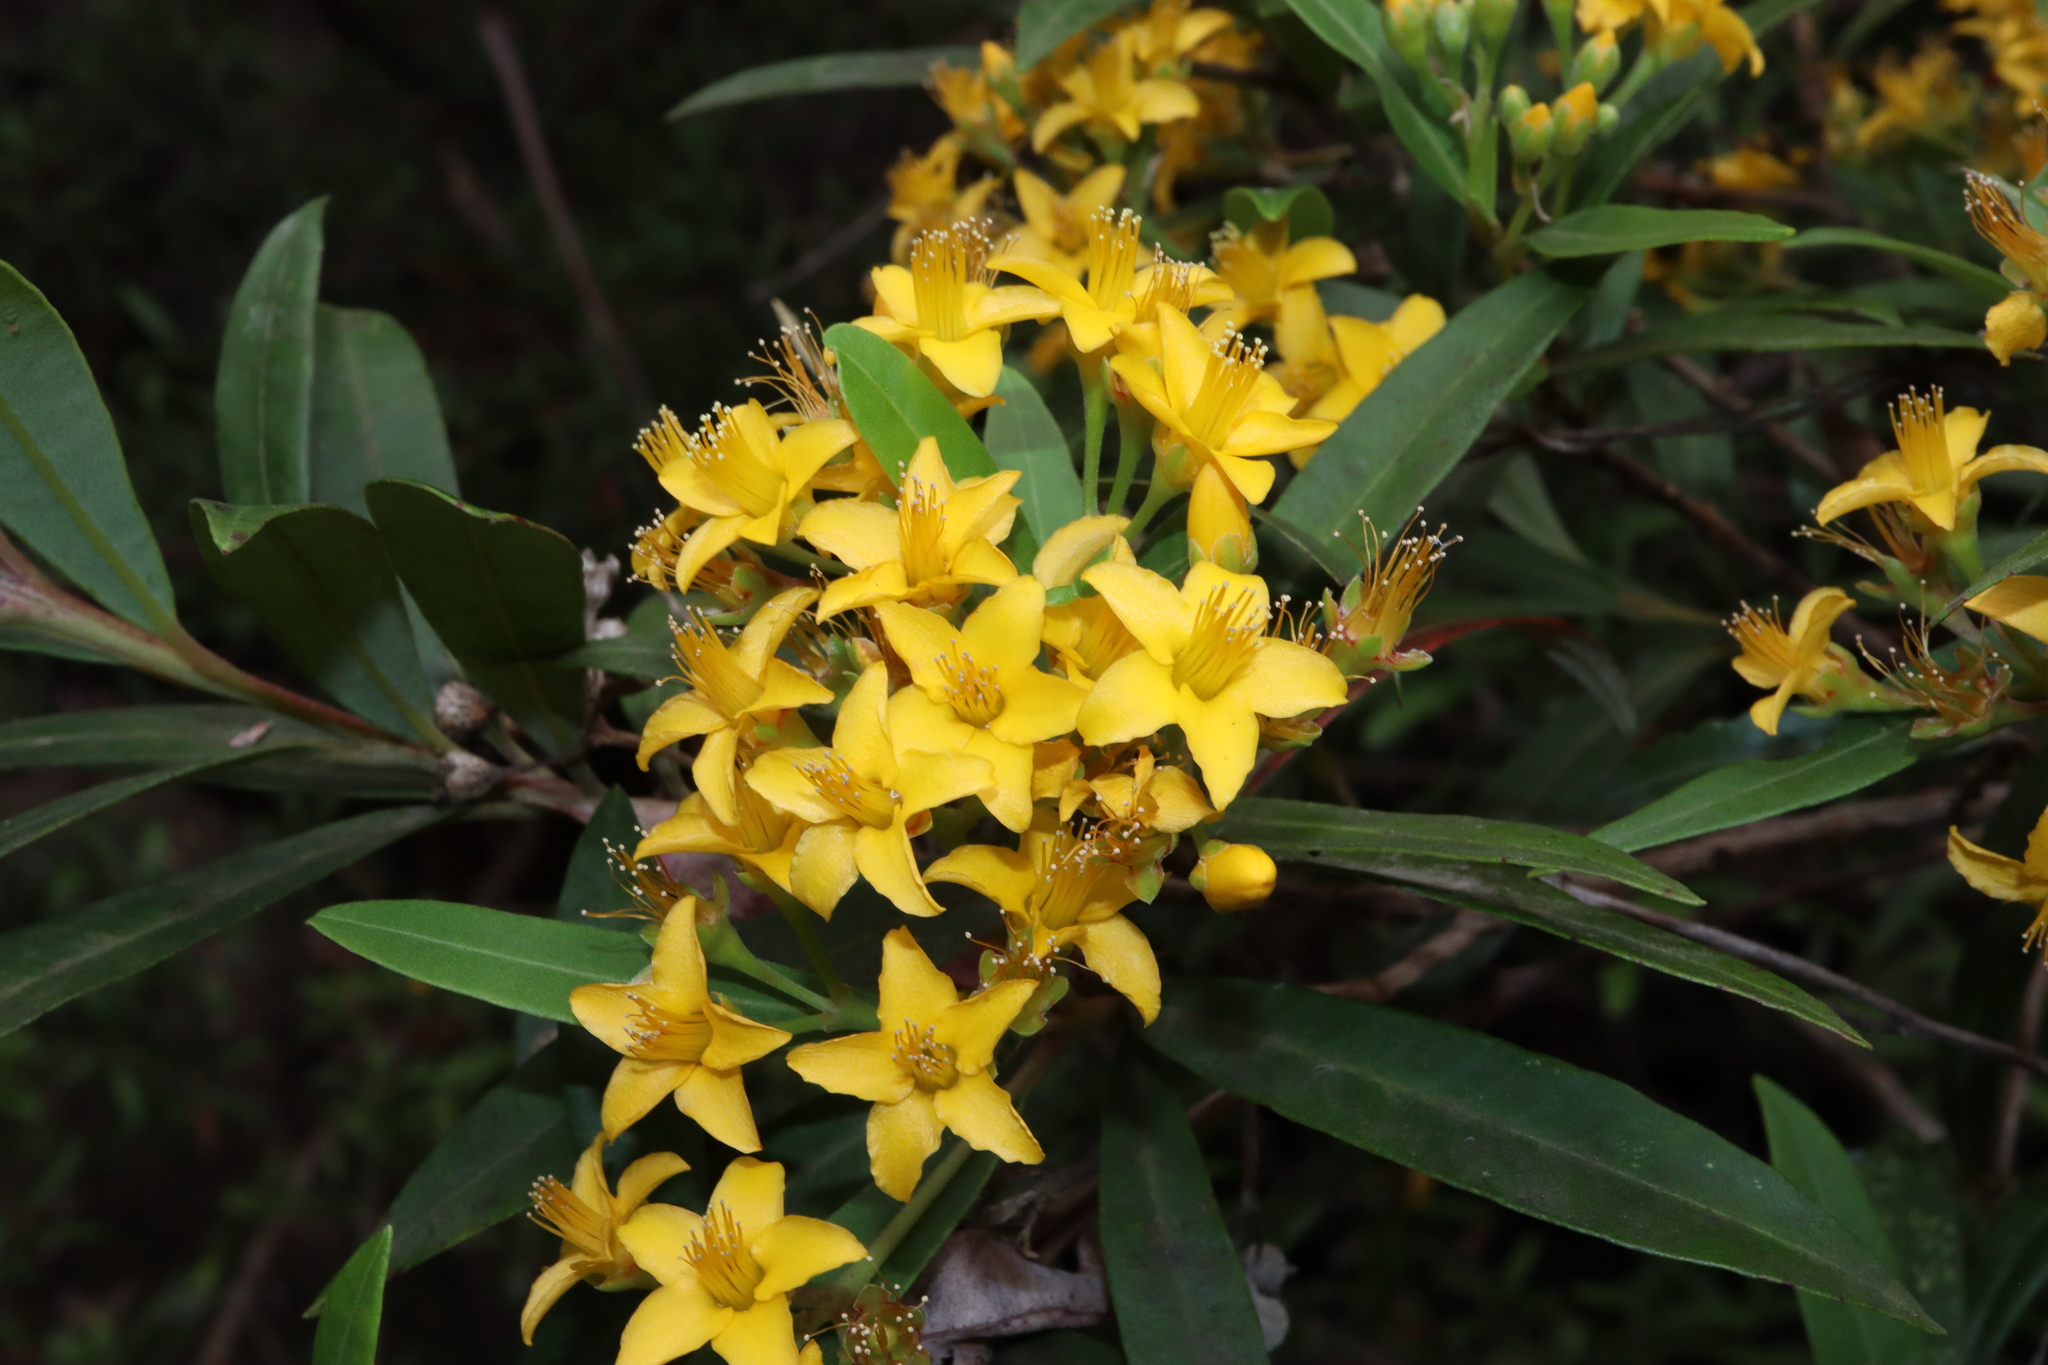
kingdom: Plantae
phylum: Tracheophyta
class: Magnoliopsida
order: Myrtales
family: Myrtaceae
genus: Tristania
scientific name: Tristania neriifolia
